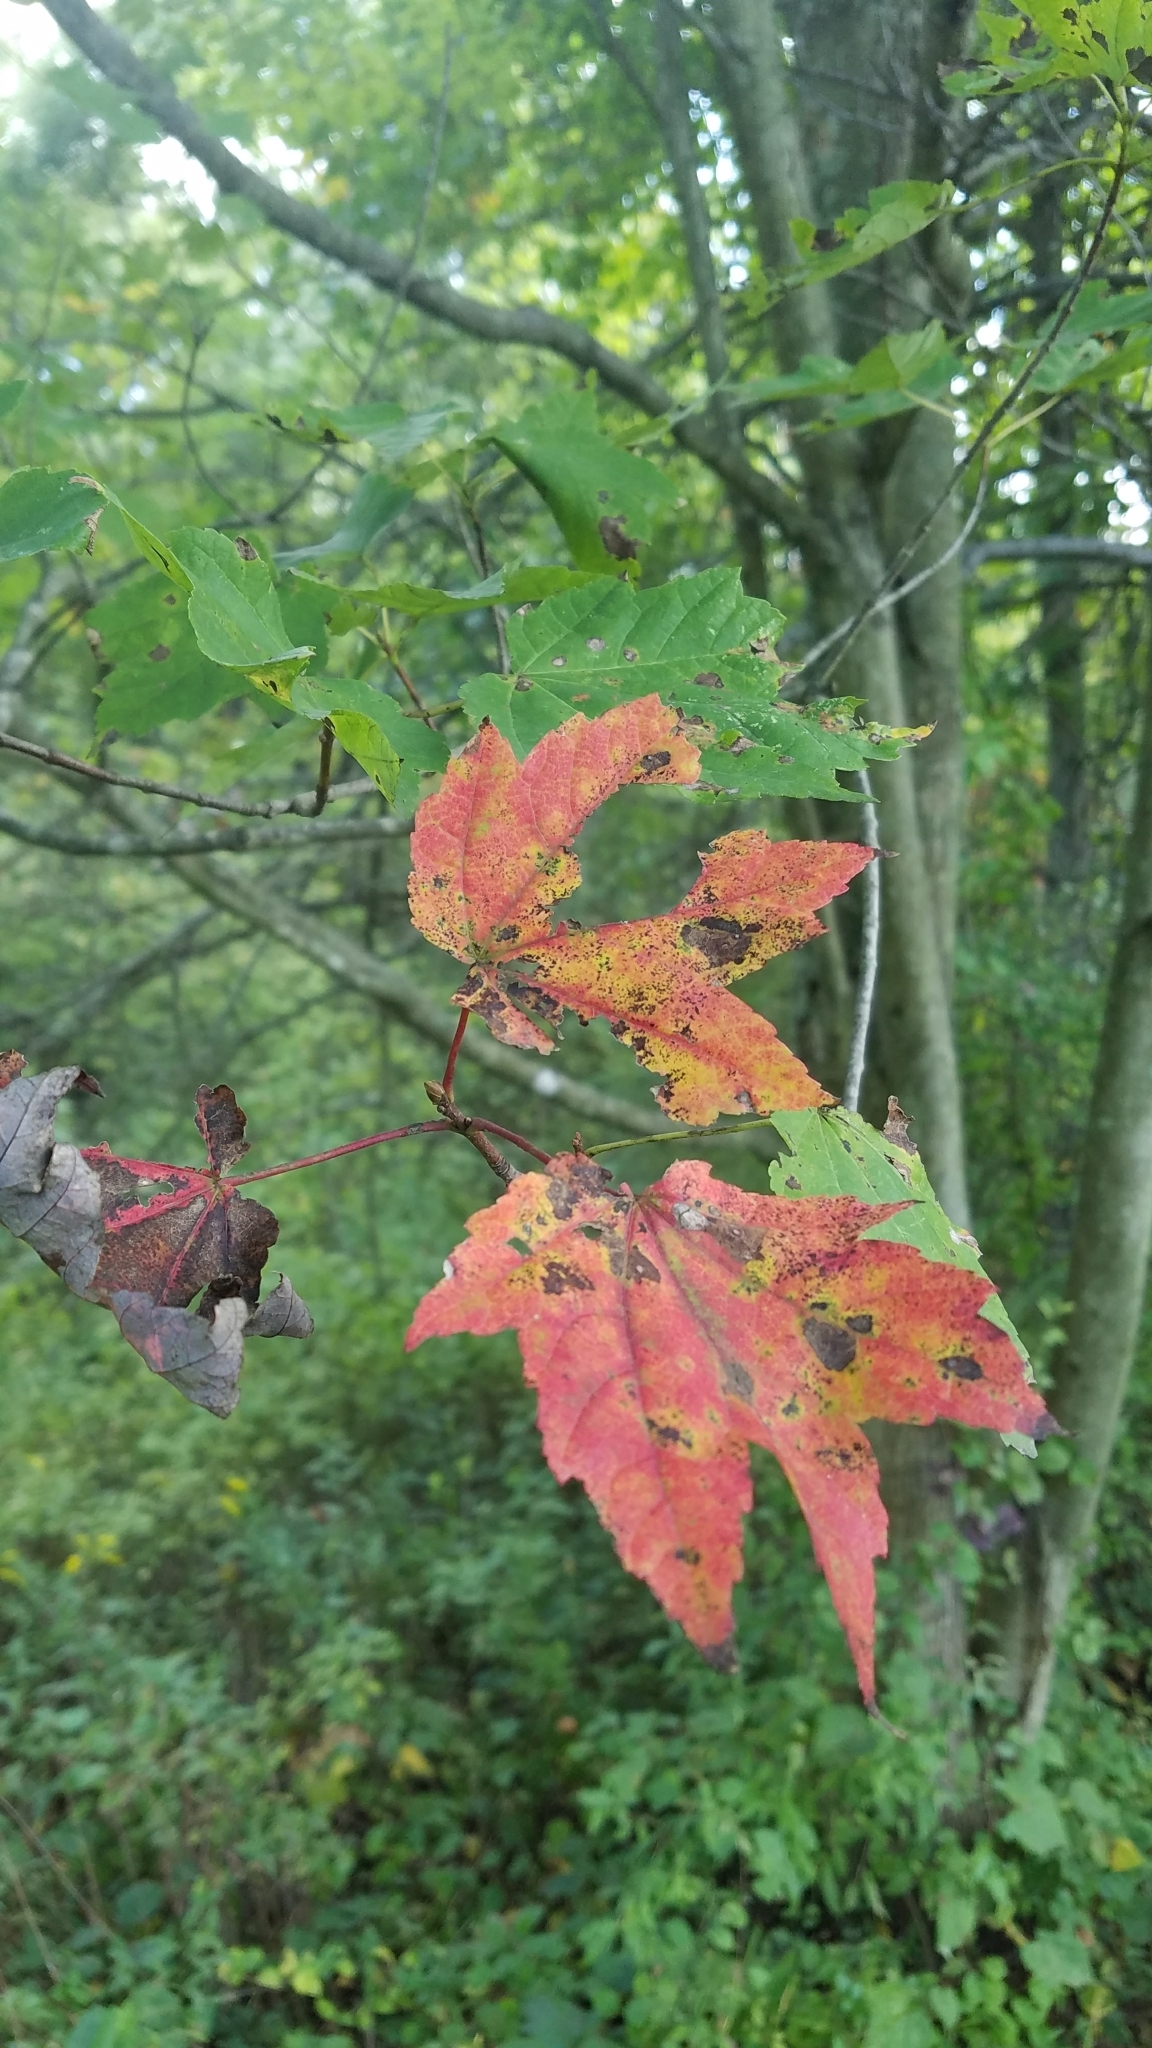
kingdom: Plantae
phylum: Tracheophyta
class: Magnoliopsida
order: Sapindales
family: Sapindaceae
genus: Acer
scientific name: Acer rubrum
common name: Red maple
